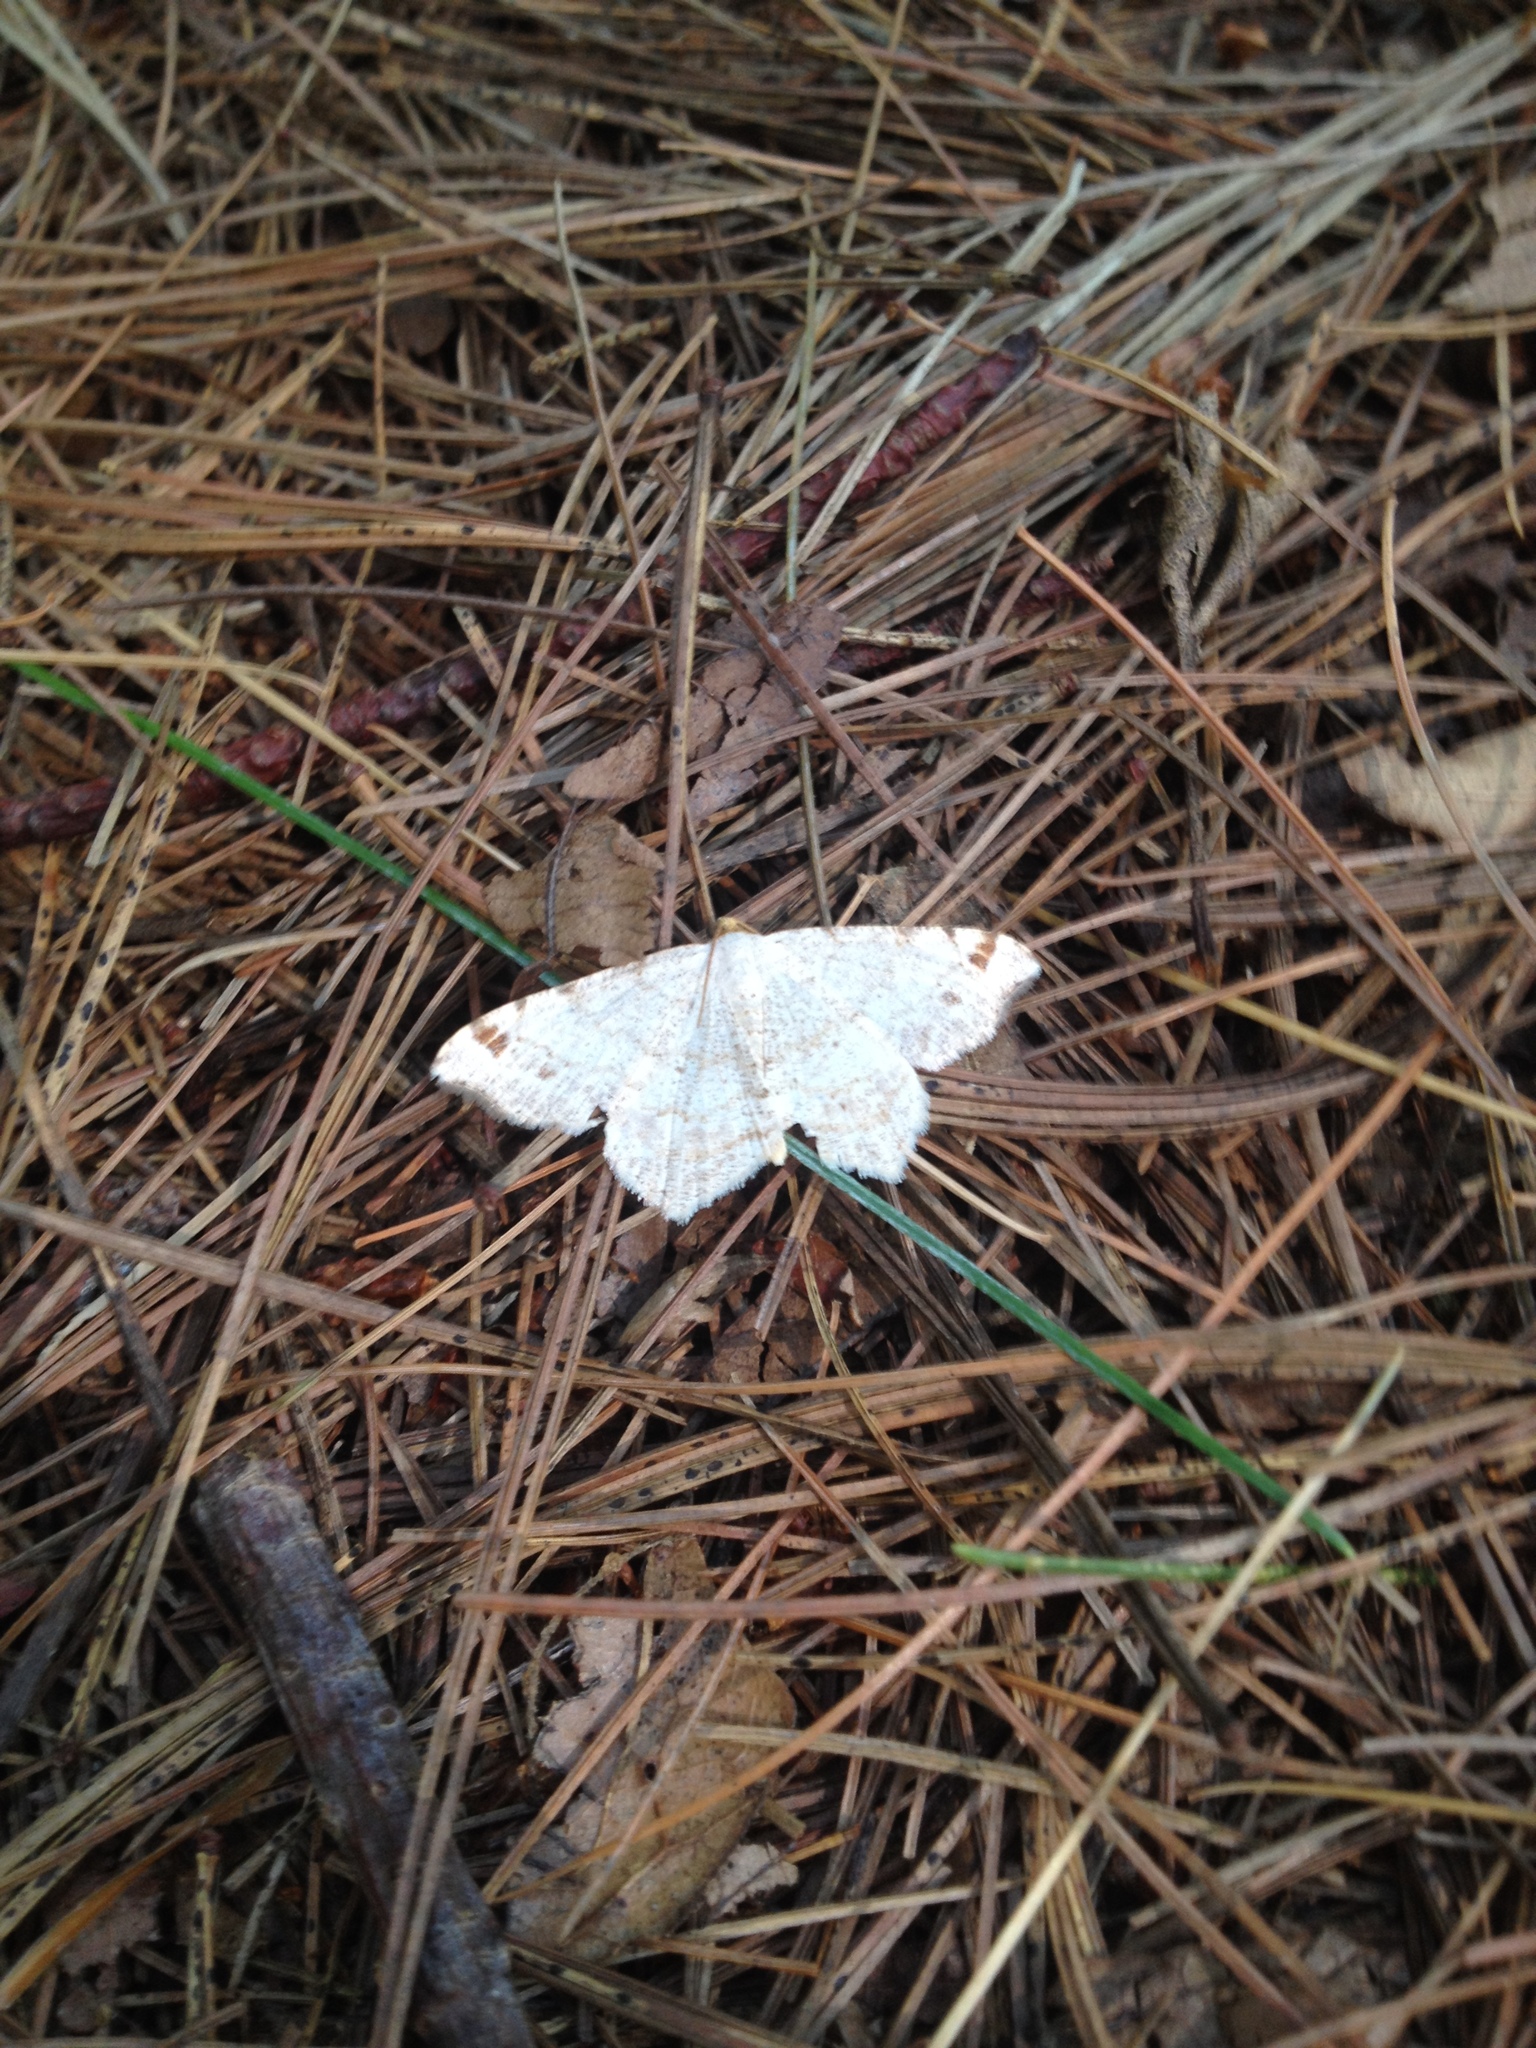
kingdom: Animalia
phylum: Arthropoda
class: Insecta
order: Lepidoptera
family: Geometridae
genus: Macaria
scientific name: Macaria bisignata
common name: Red-headed inchworm
